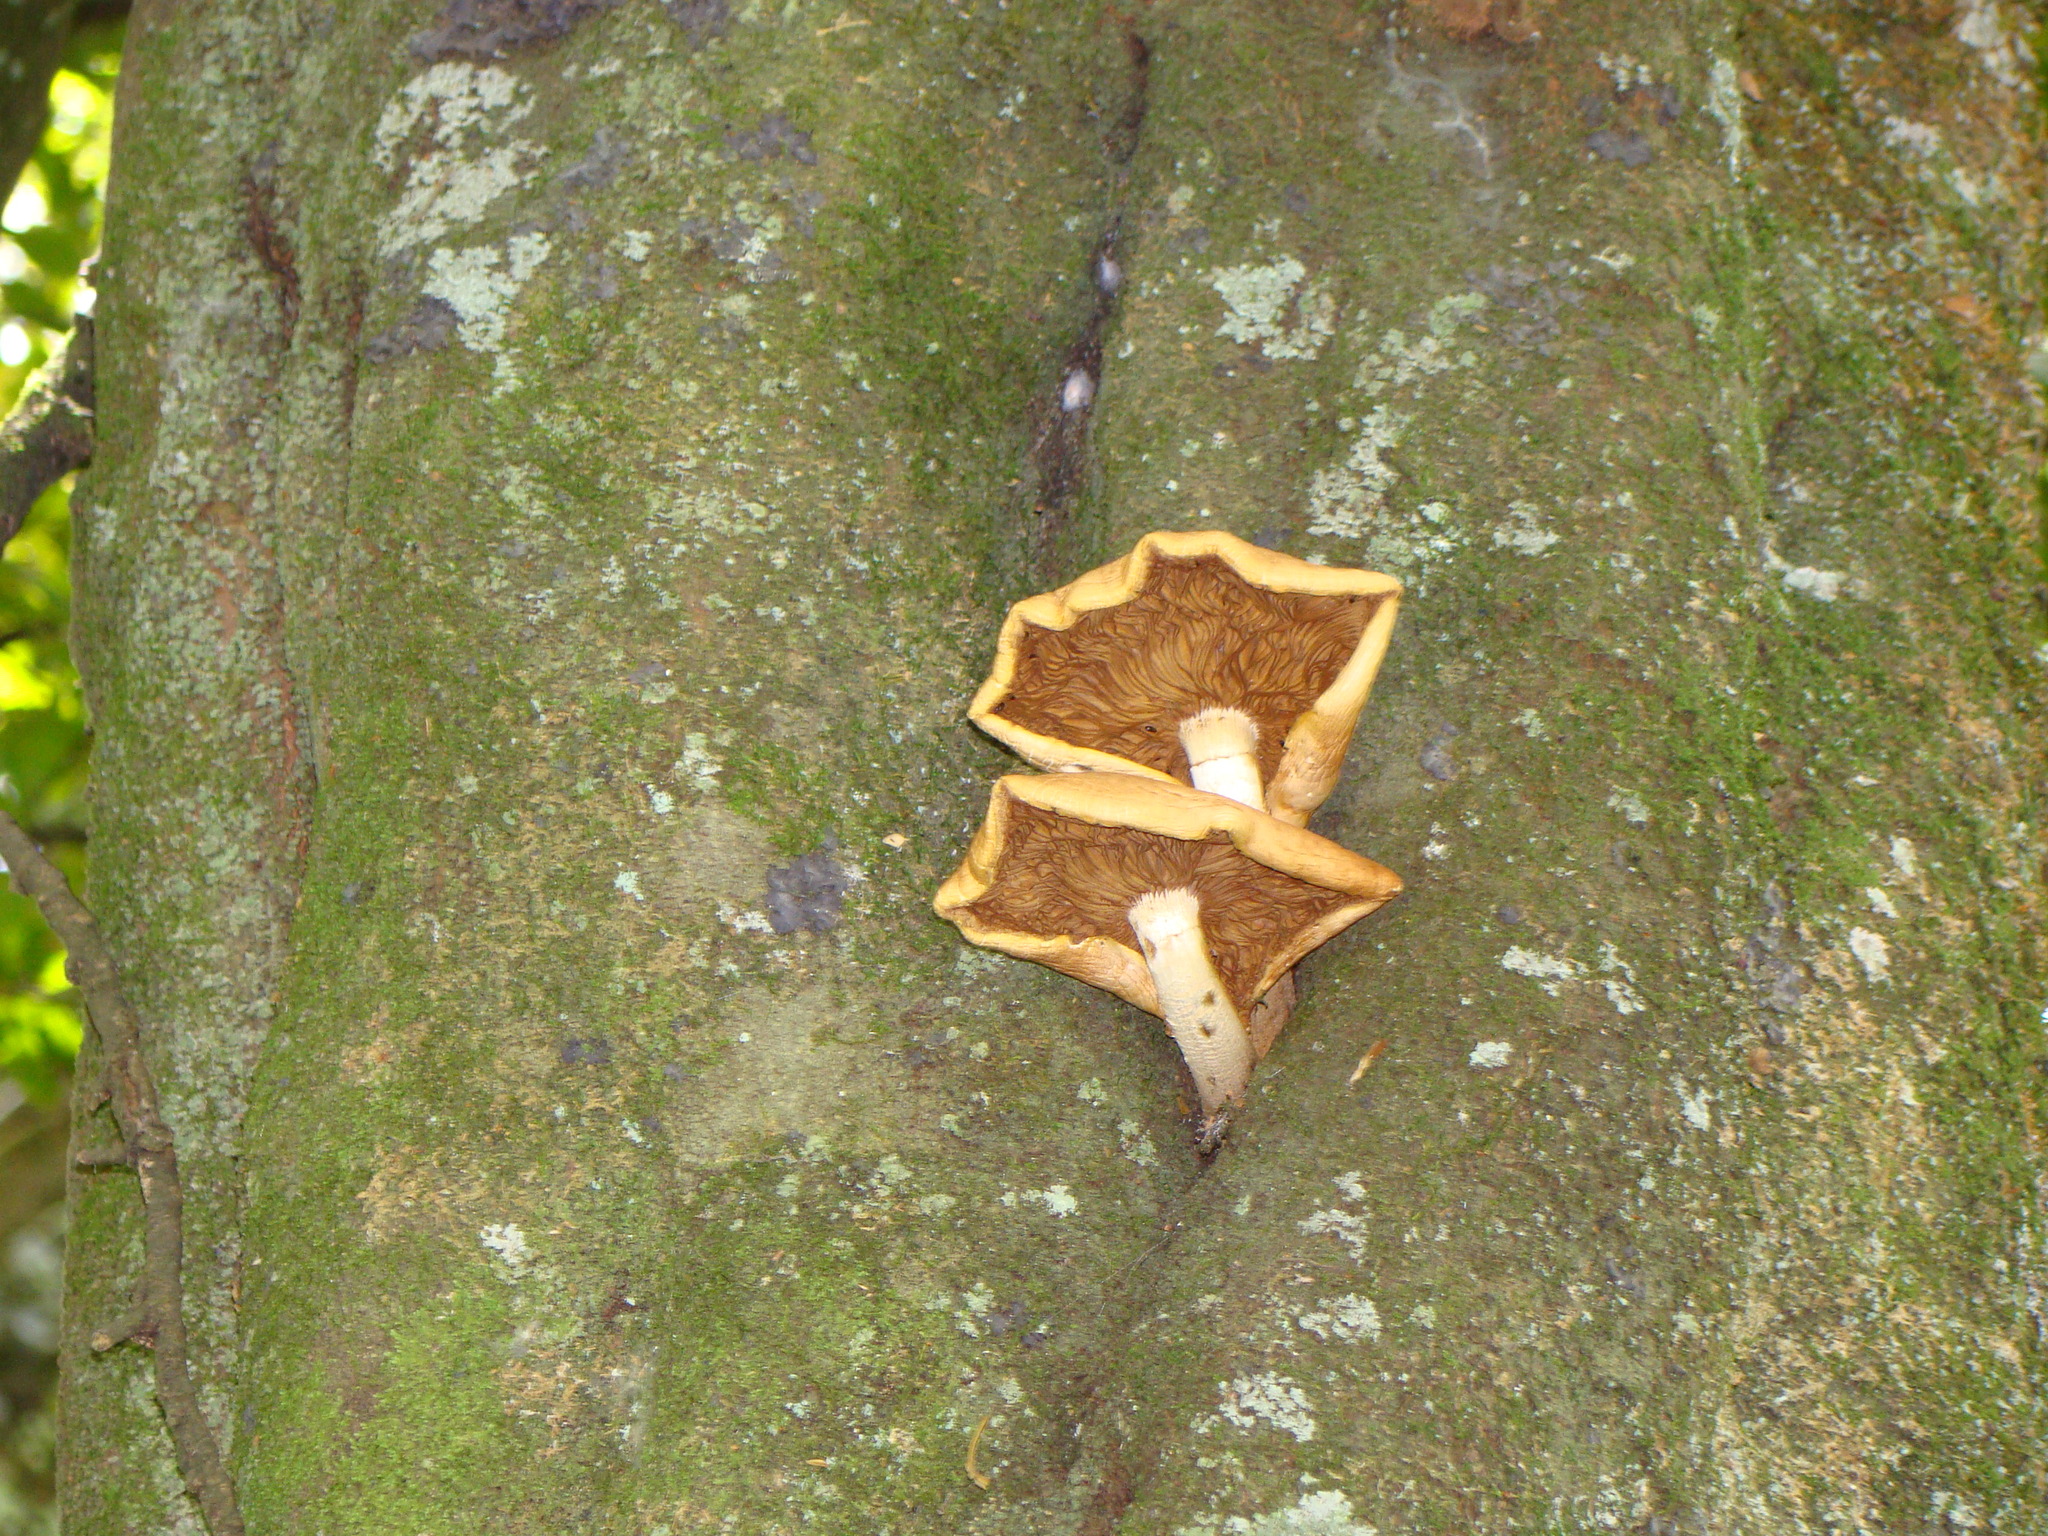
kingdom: Fungi
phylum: Basidiomycota
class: Agaricomycetes
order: Agaricales
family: Tubariaceae
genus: Cyclocybe
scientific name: Cyclocybe parasitica
